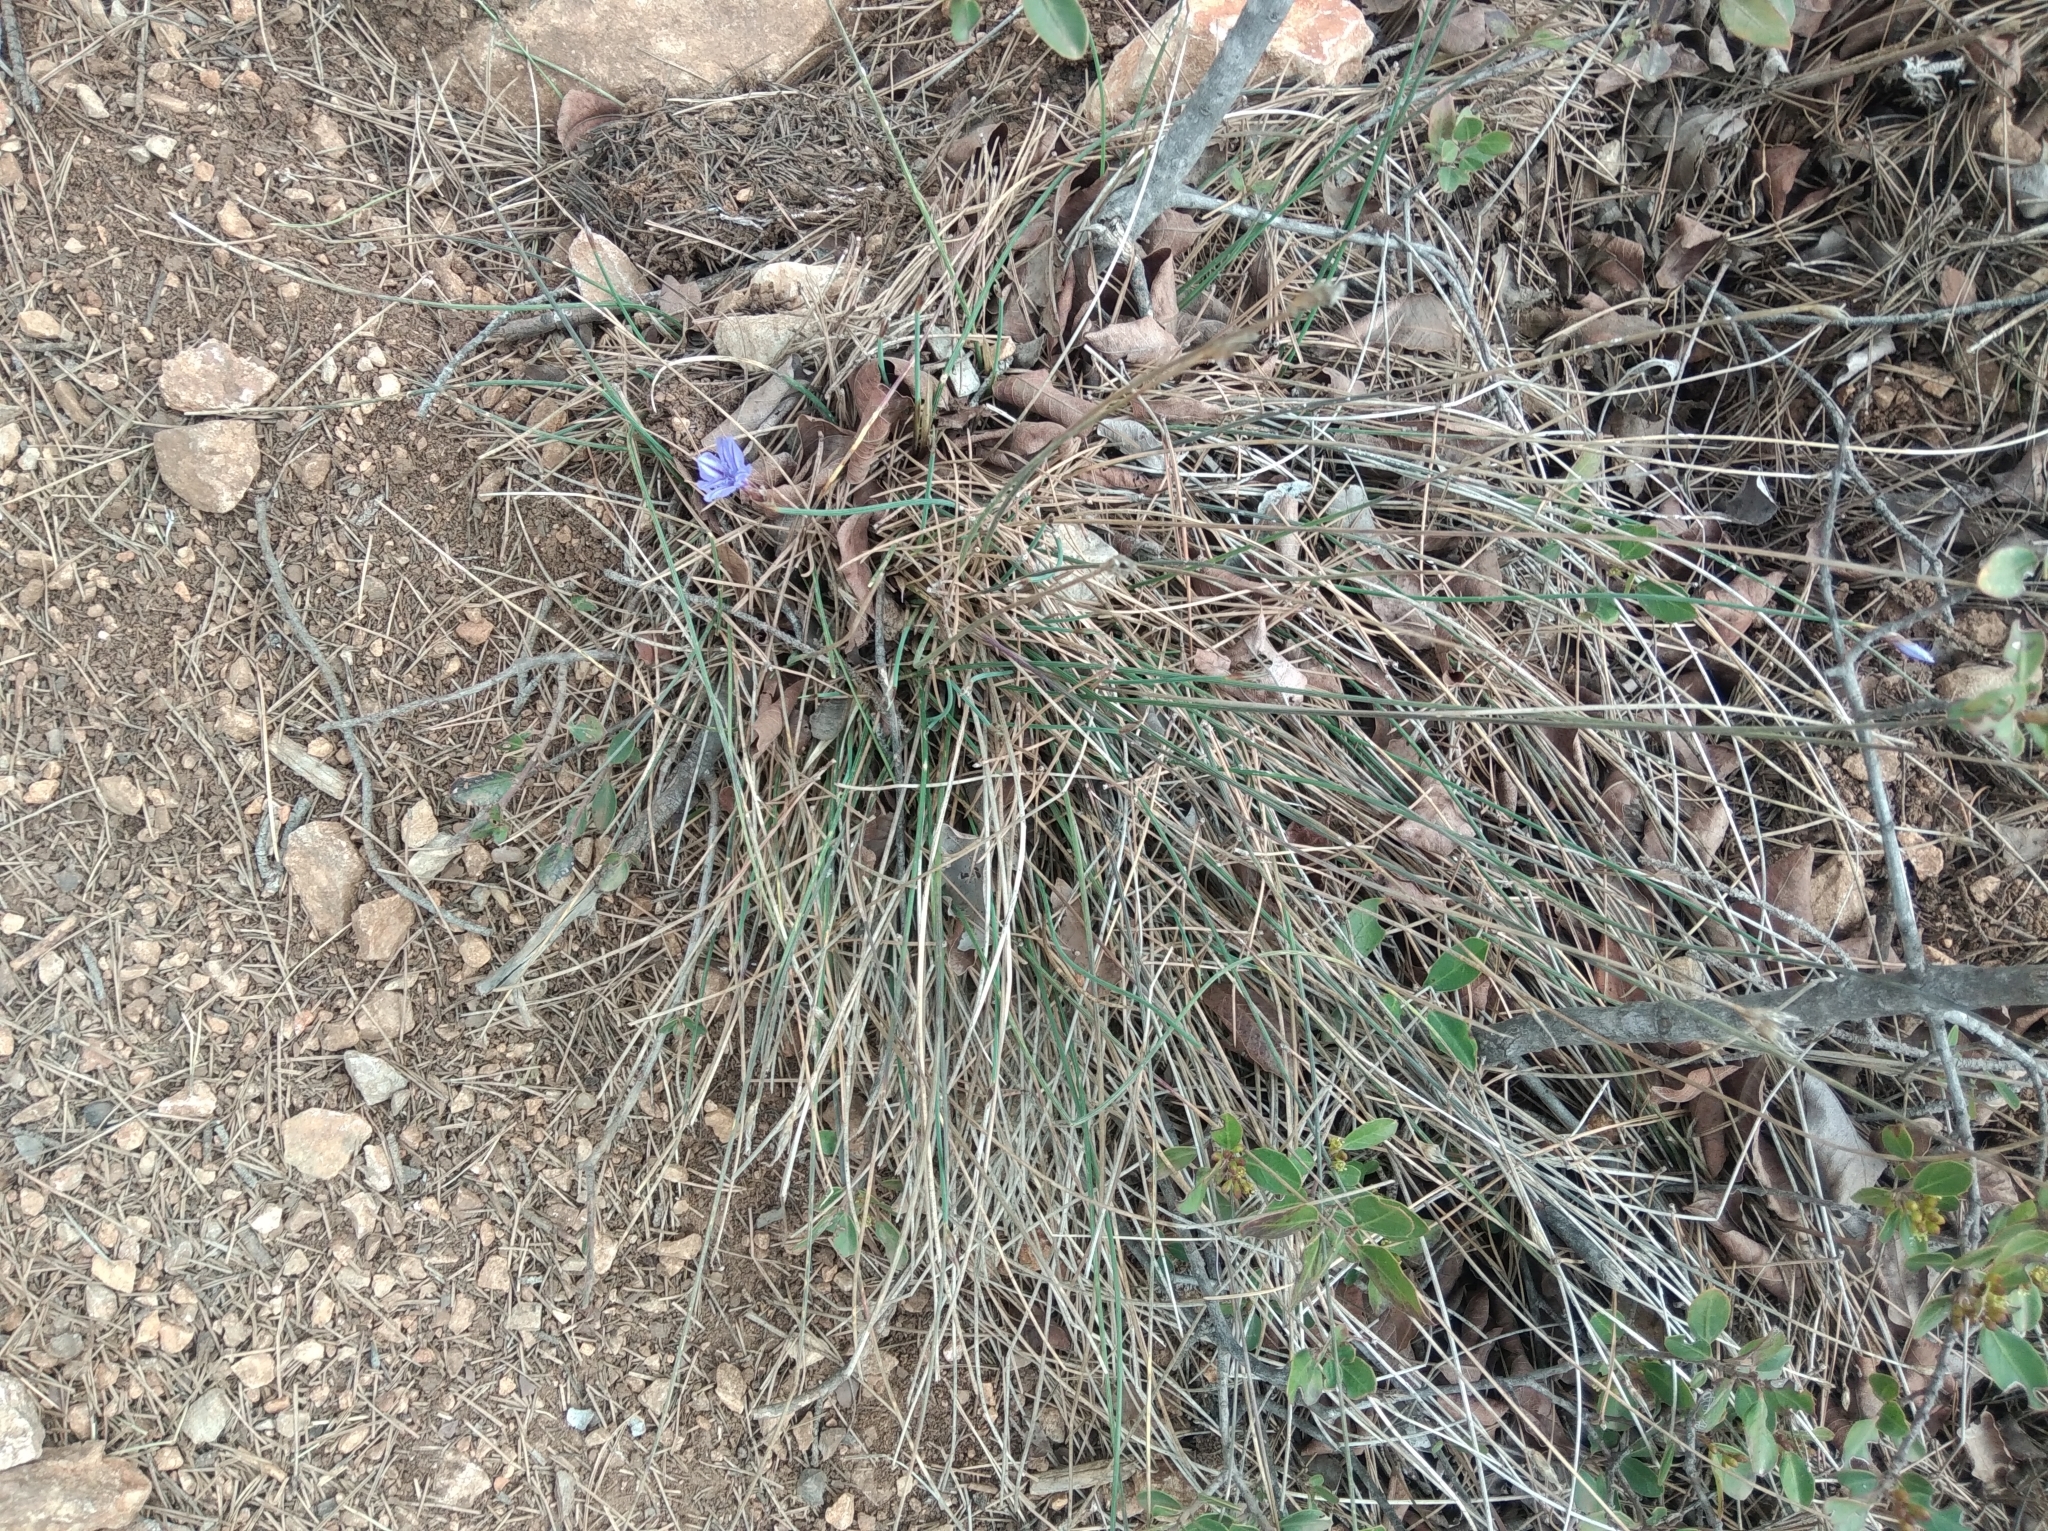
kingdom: Plantae
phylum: Tracheophyta
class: Liliopsida
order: Asparagales
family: Asparagaceae
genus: Aphyllanthes
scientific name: Aphyllanthes monspeliensis
